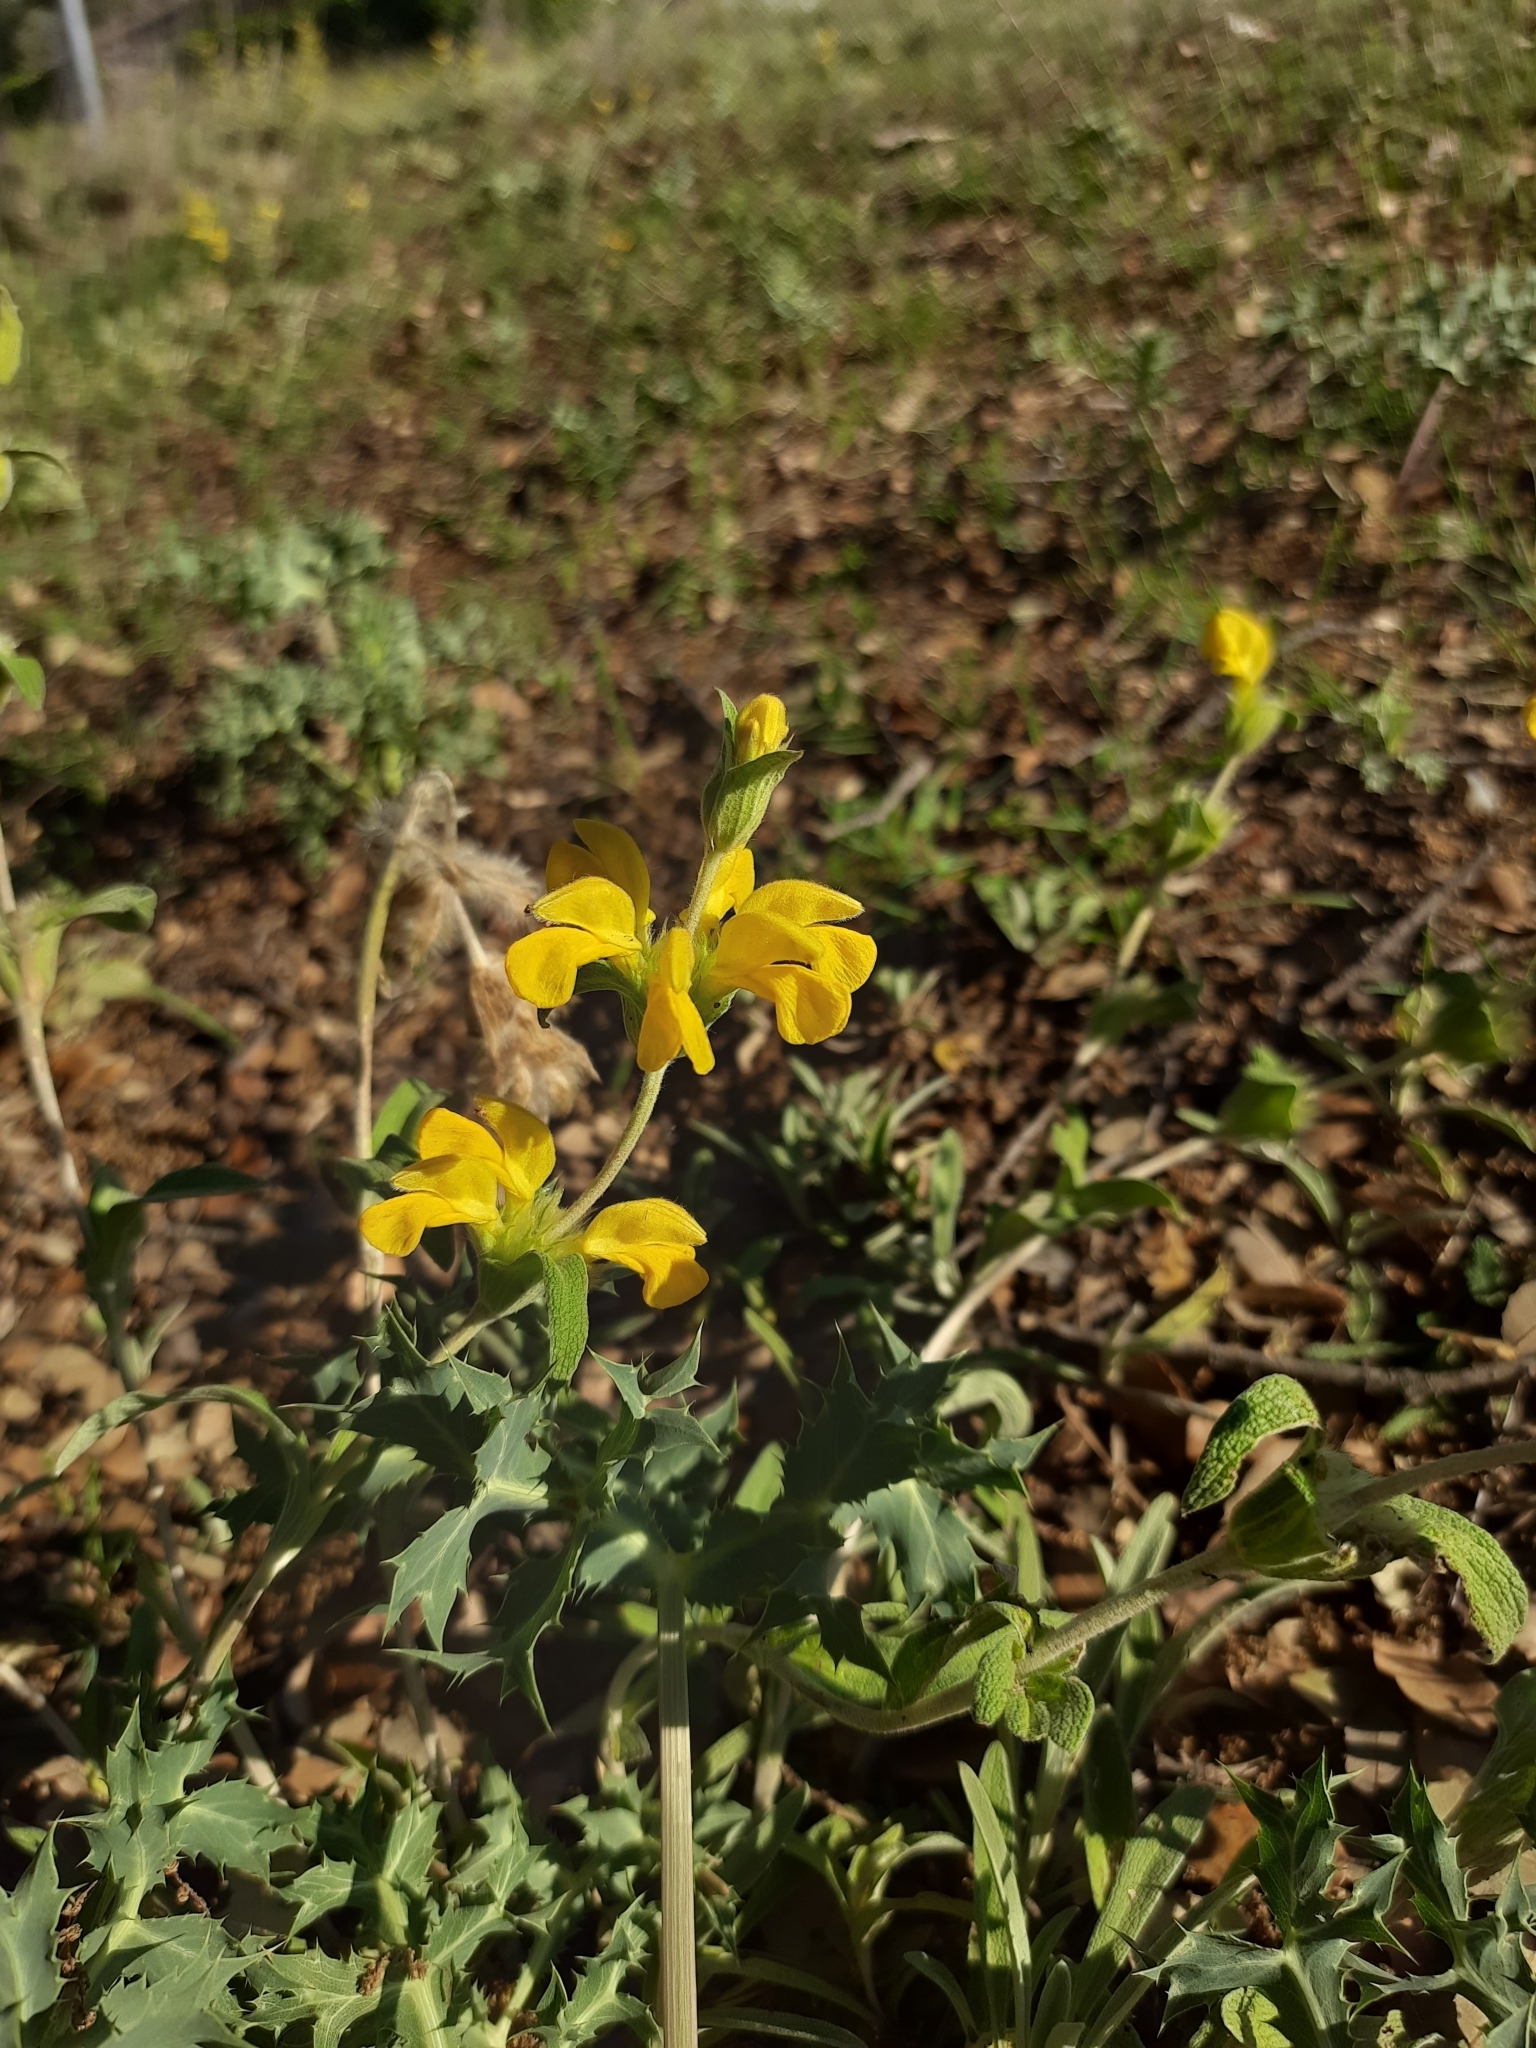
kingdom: Plantae
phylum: Tracheophyta
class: Magnoliopsida
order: Lamiales
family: Lamiaceae
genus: Phlomis
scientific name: Phlomis lychnitis
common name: Lampwickplant
